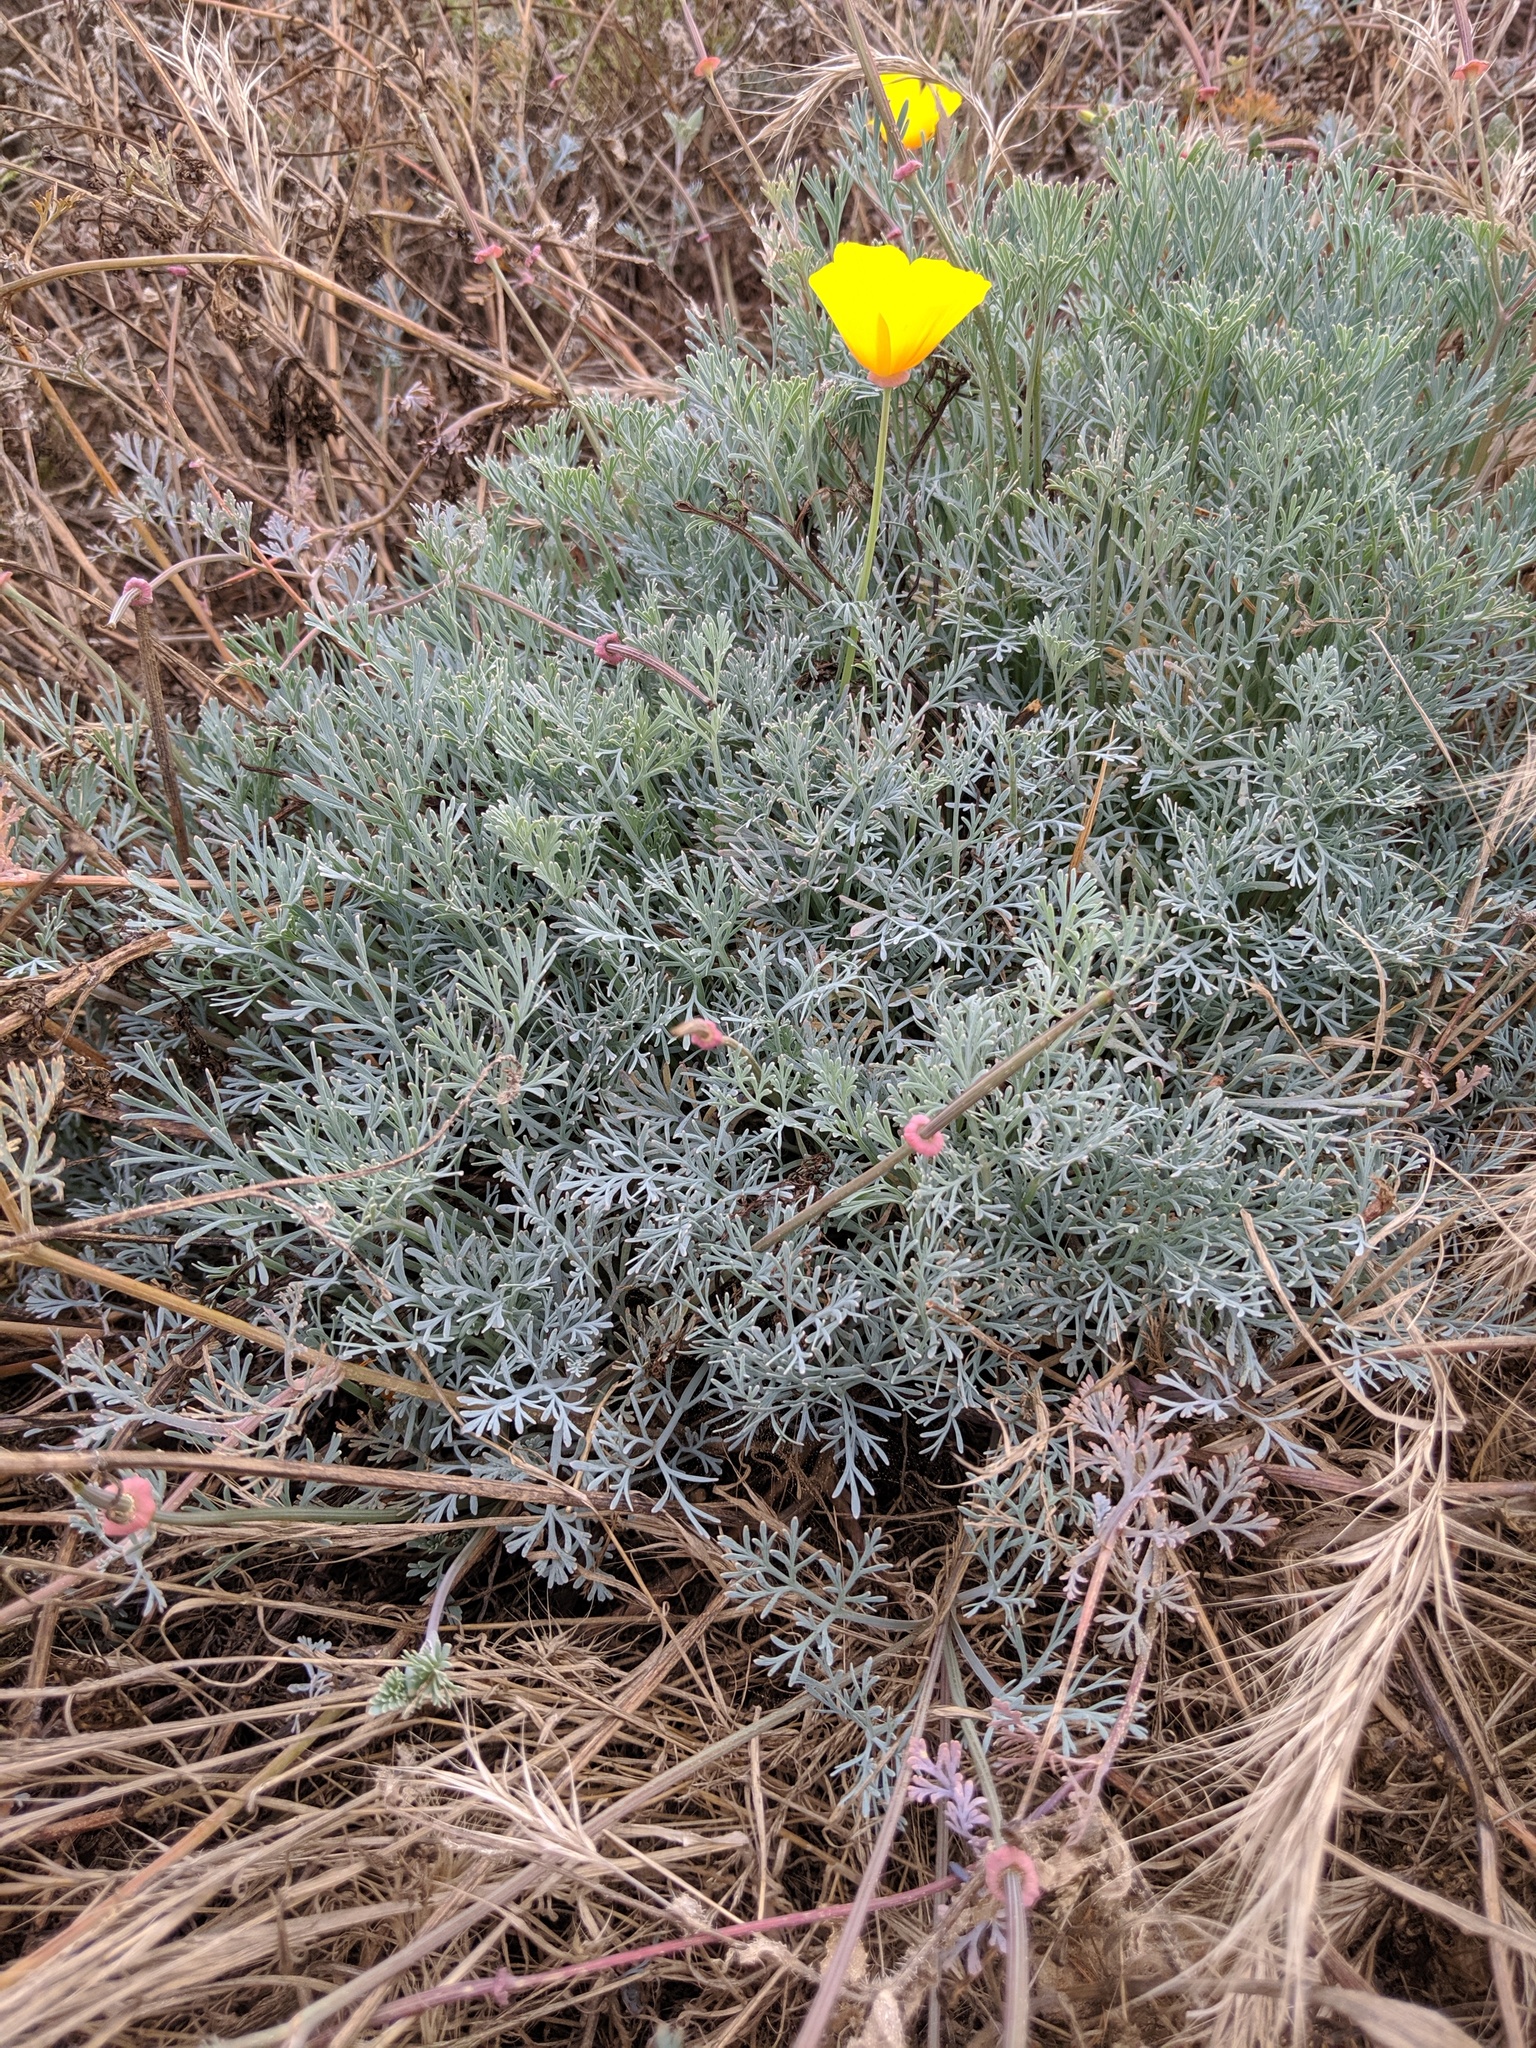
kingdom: Plantae
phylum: Tracheophyta
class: Magnoliopsida
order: Ranunculales
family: Papaveraceae
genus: Eschscholzia
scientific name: Eschscholzia californica
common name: California poppy
